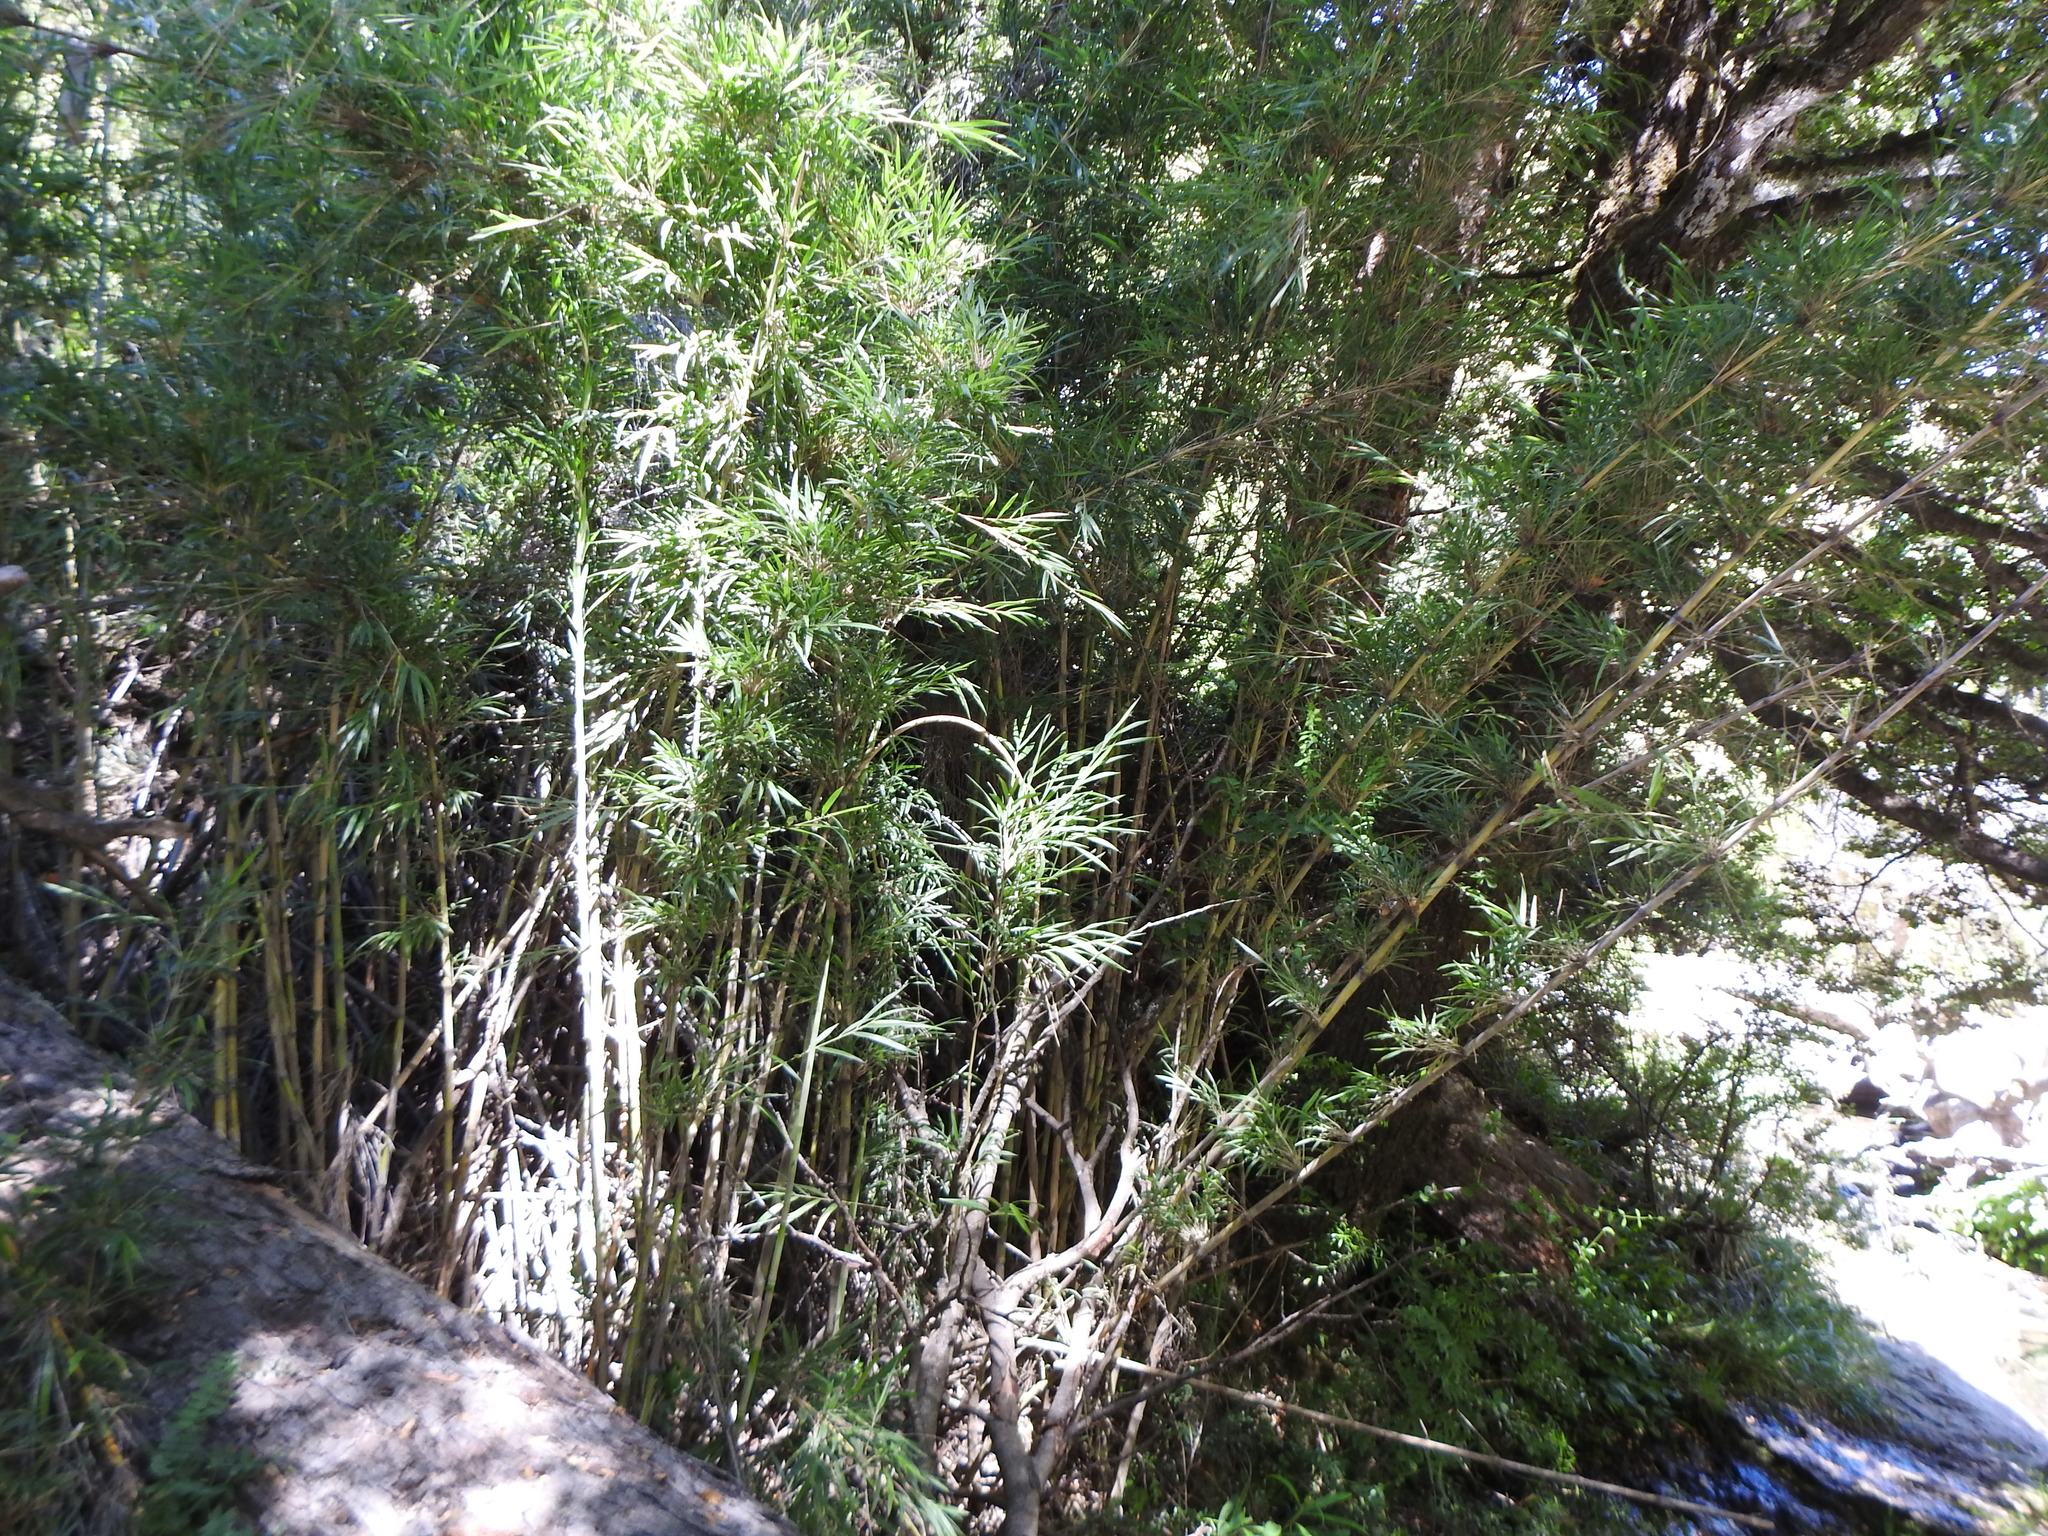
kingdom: Plantae
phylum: Tracheophyta
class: Liliopsida
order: Poales
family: Poaceae
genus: Chusquea
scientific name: Chusquea culeou
